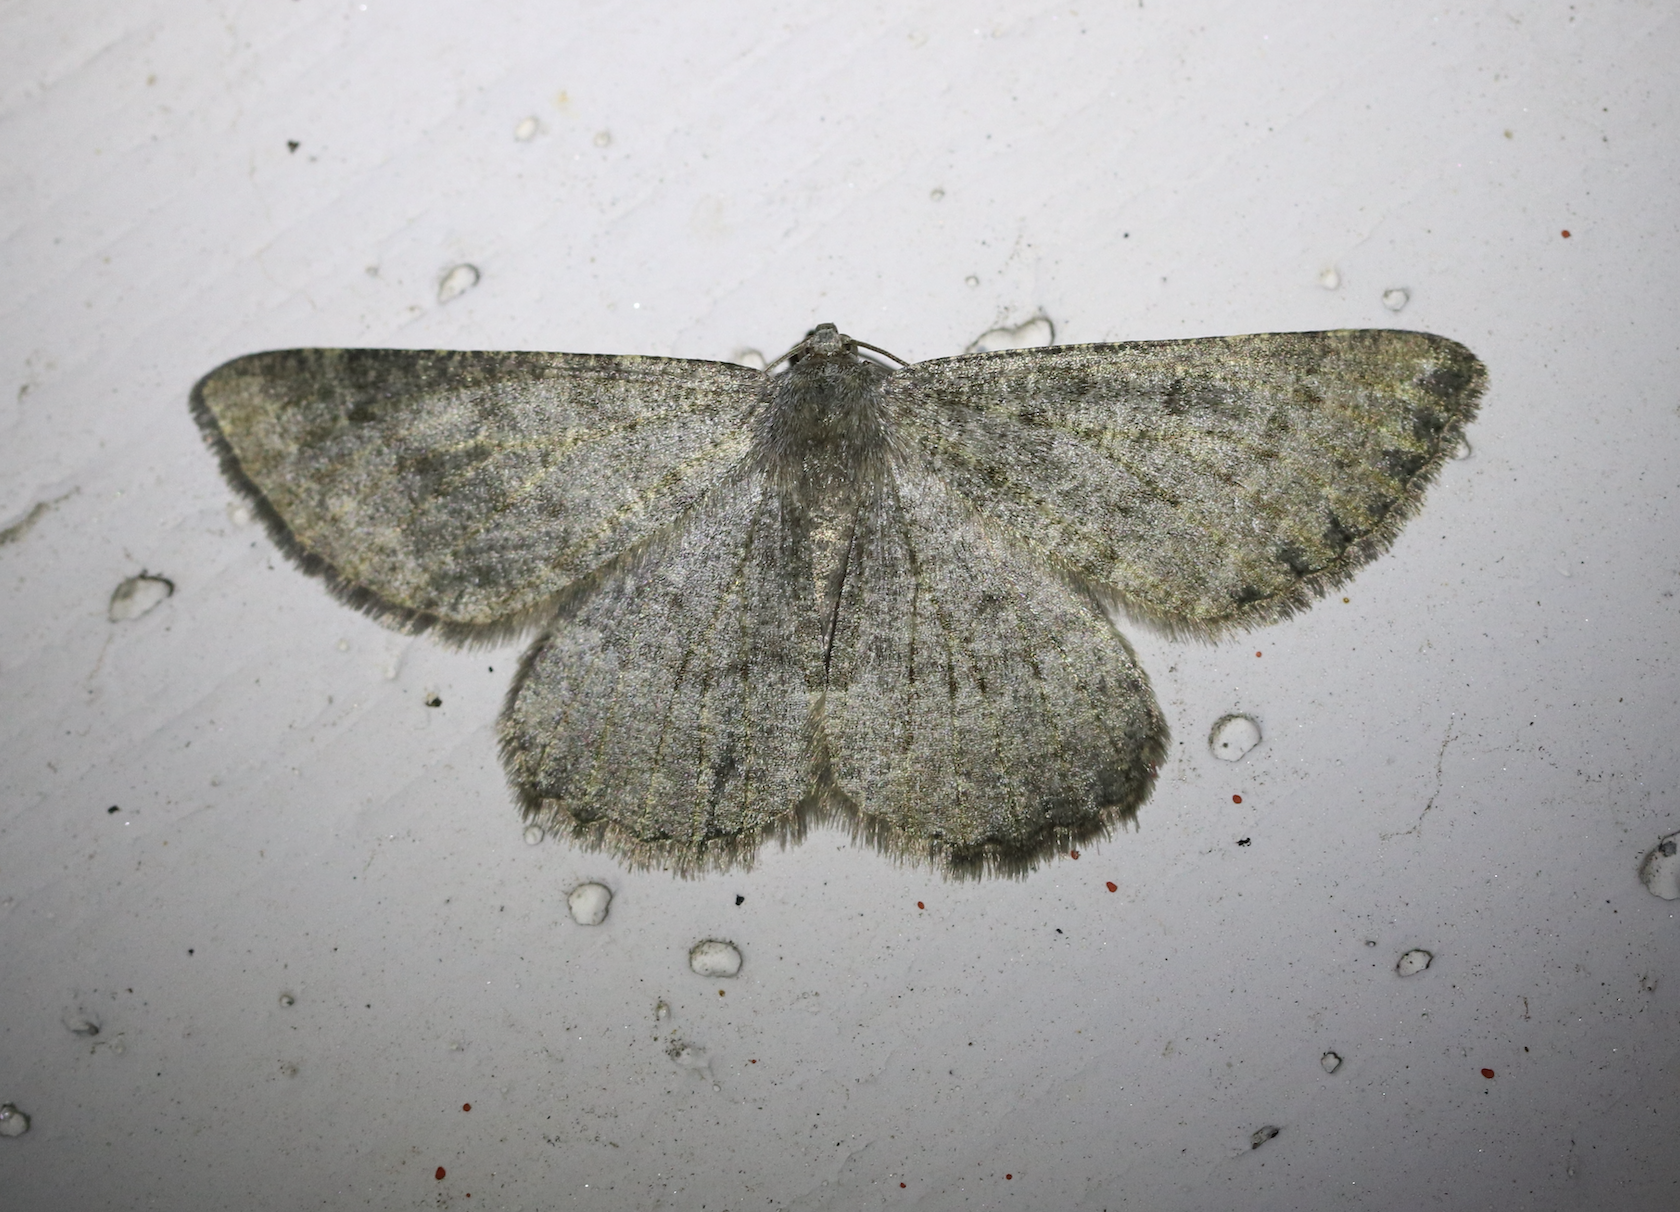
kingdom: Animalia
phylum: Arthropoda
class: Insecta
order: Lepidoptera
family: Geometridae
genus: Gnophos
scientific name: Gnophos obfuscata
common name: Scottish annulet
